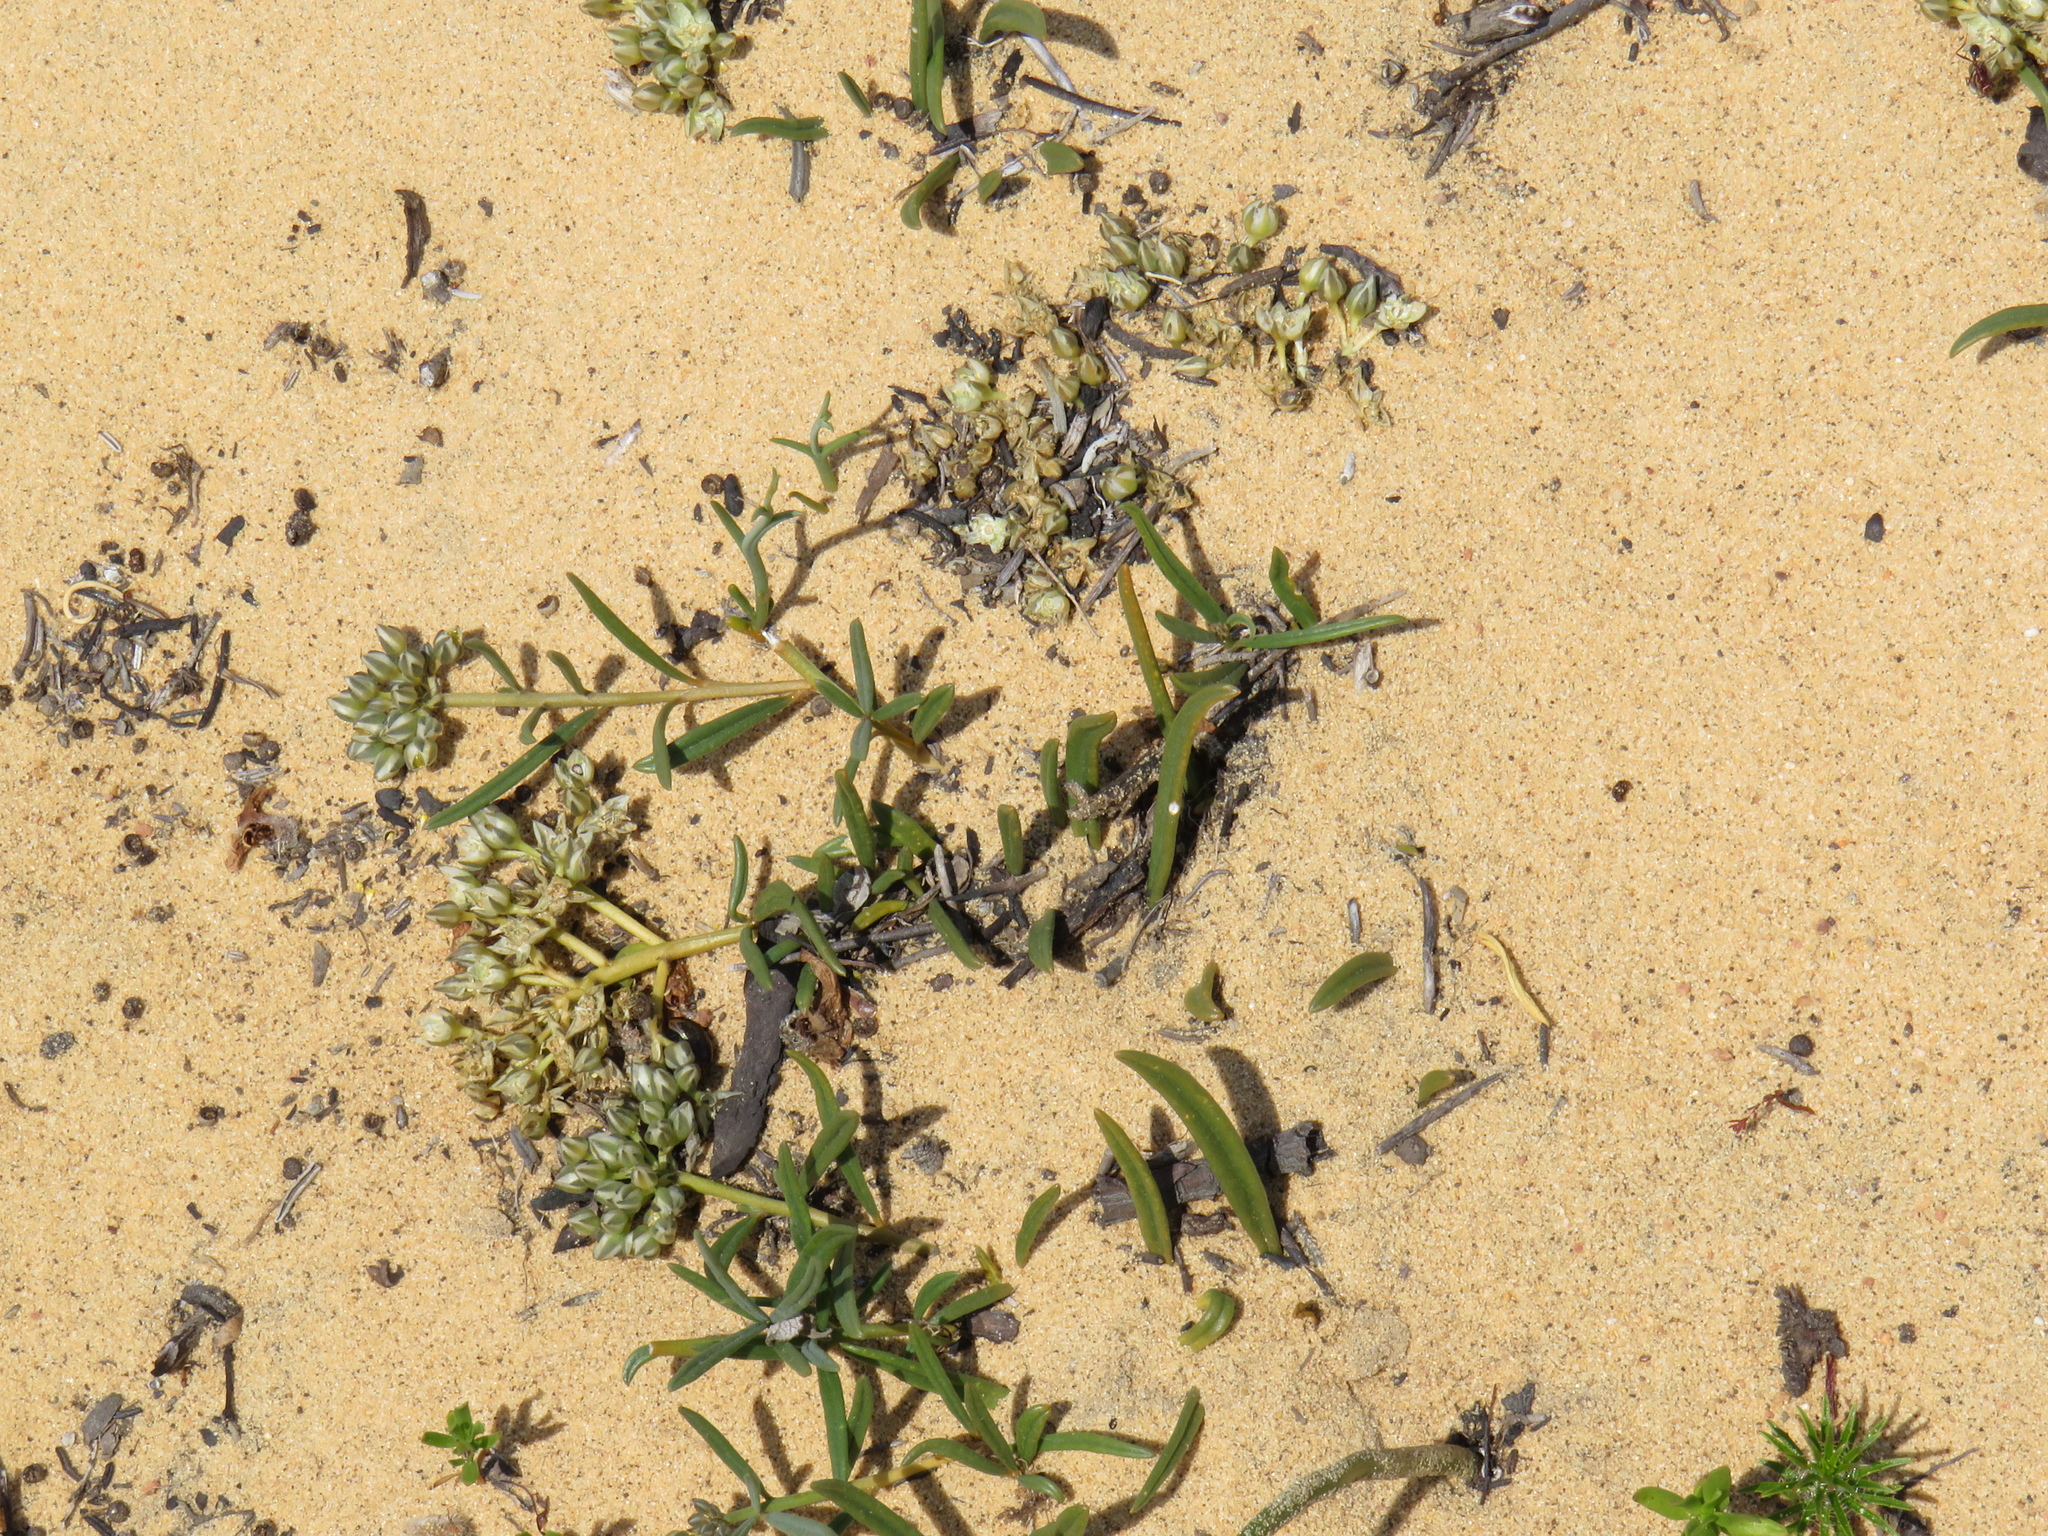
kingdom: Plantae
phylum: Tracheophyta
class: Magnoliopsida
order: Caryophyllales
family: Limeaceae
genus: Limeum
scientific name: Limeum africanum
